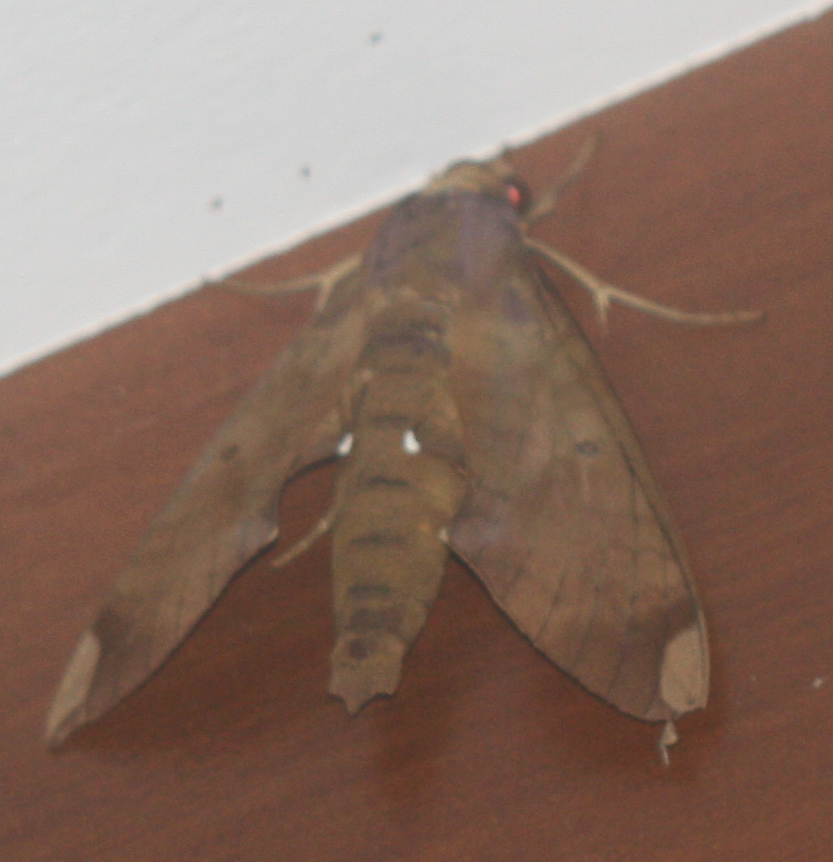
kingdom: Animalia
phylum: Arthropoda
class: Insecta
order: Lepidoptera
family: Sphingidae
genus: Pachylia
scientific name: Pachylia ficus
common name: Fig sphinx
